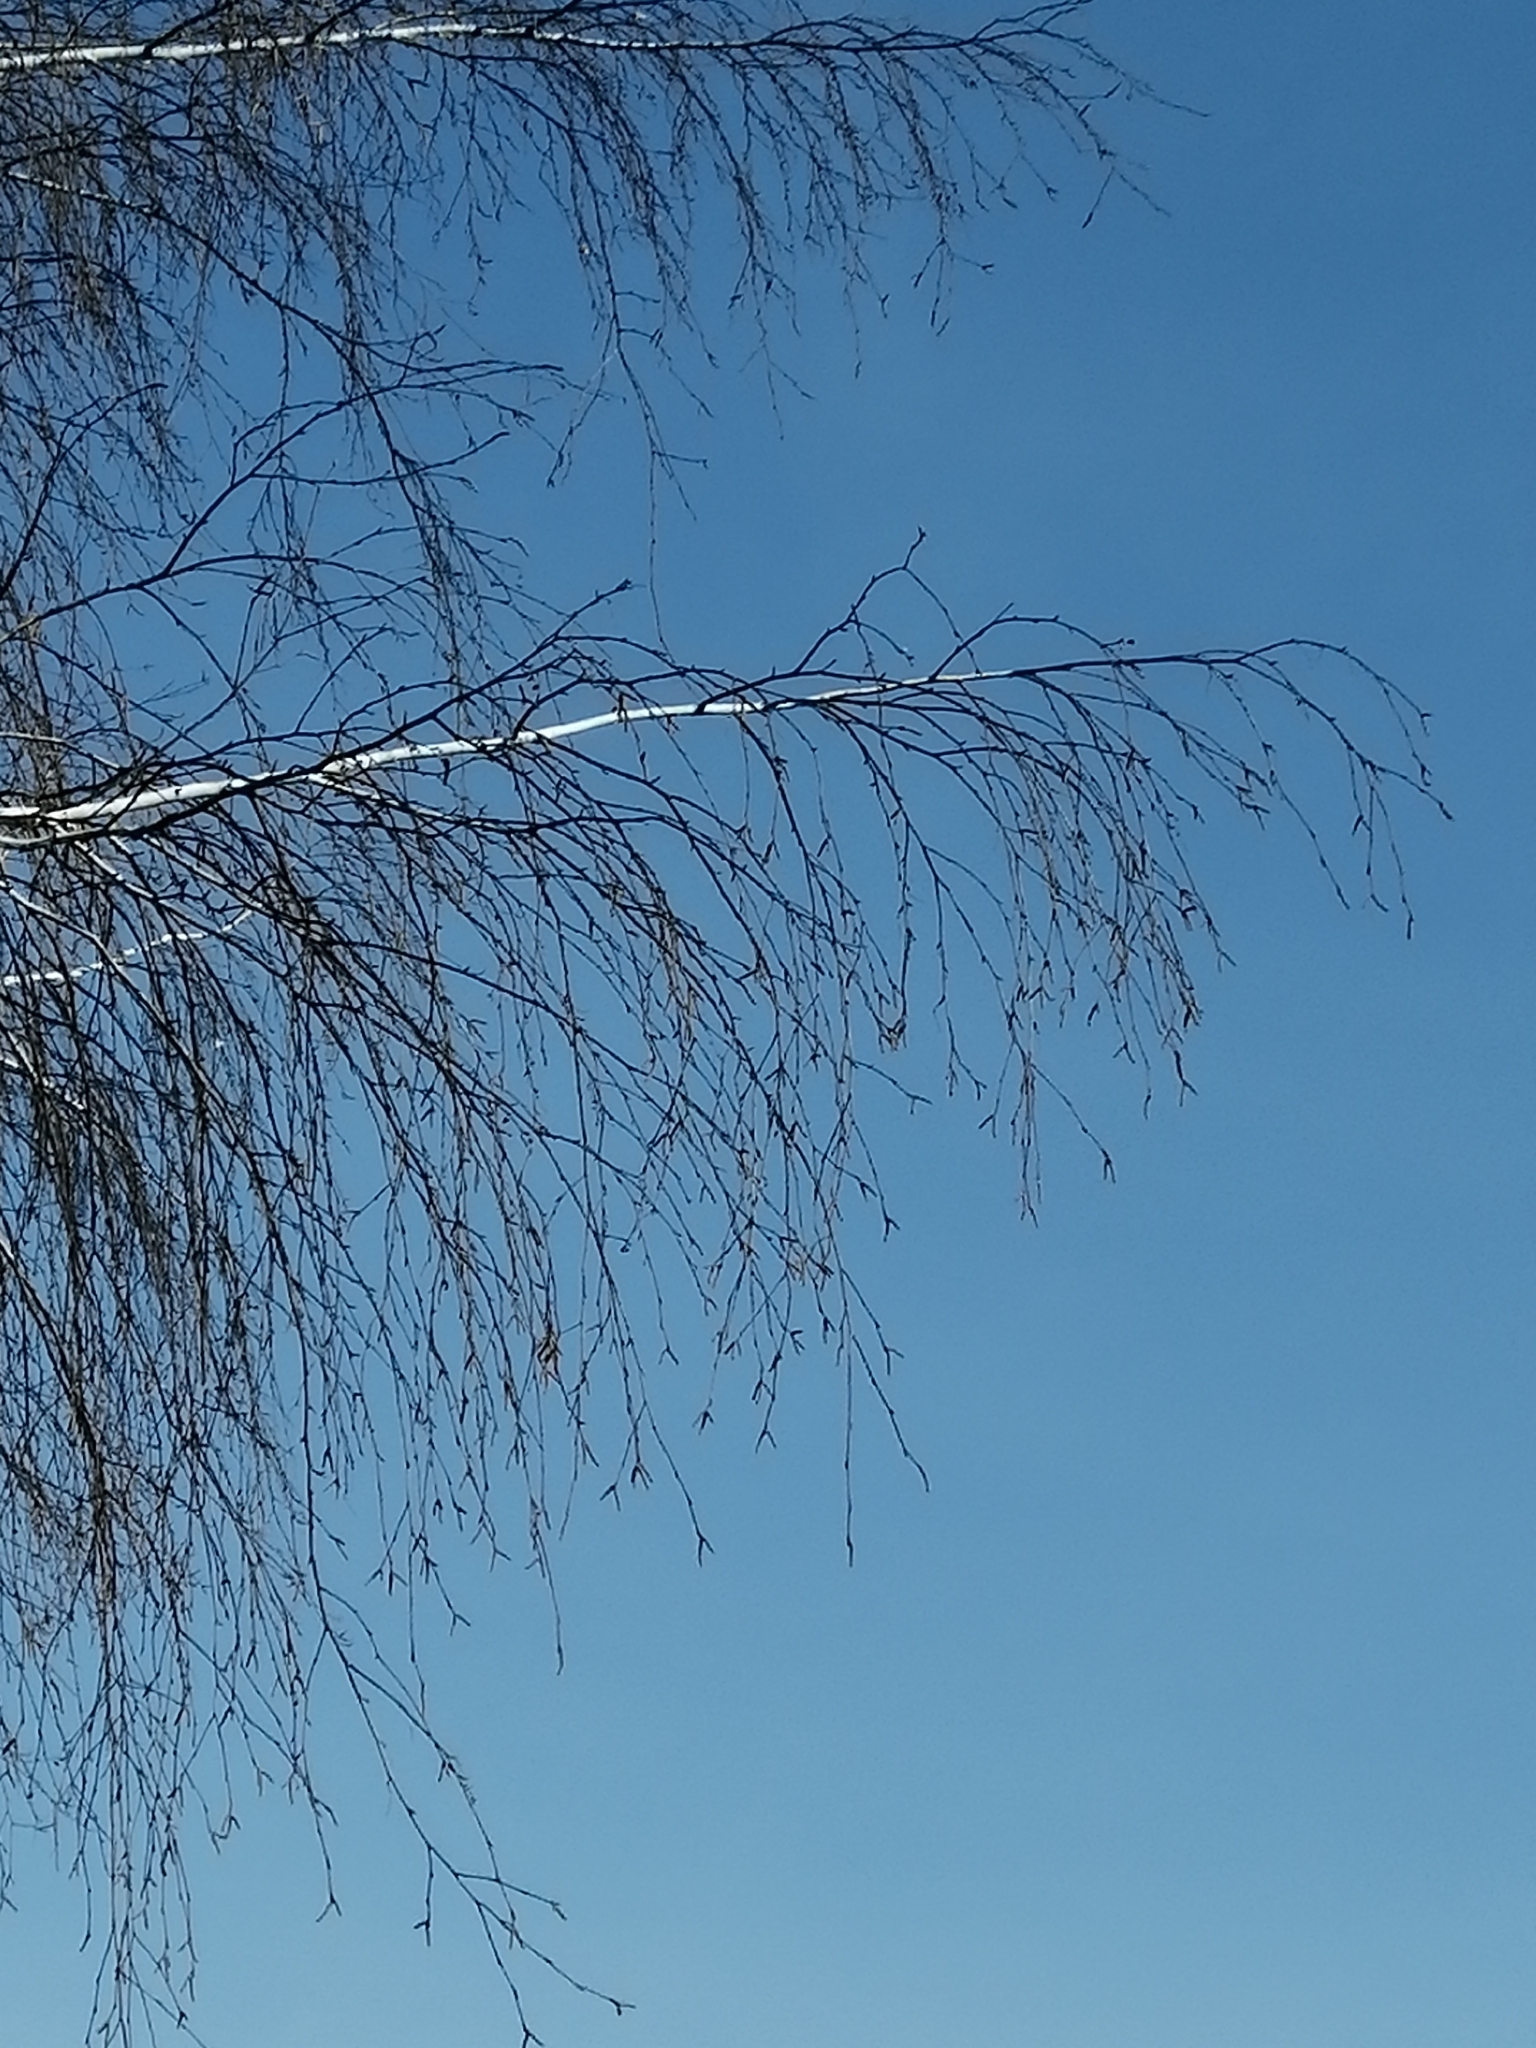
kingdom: Plantae
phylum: Tracheophyta
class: Magnoliopsida
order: Fagales
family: Betulaceae
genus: Betula
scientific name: Betula pendula
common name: Silver birch
